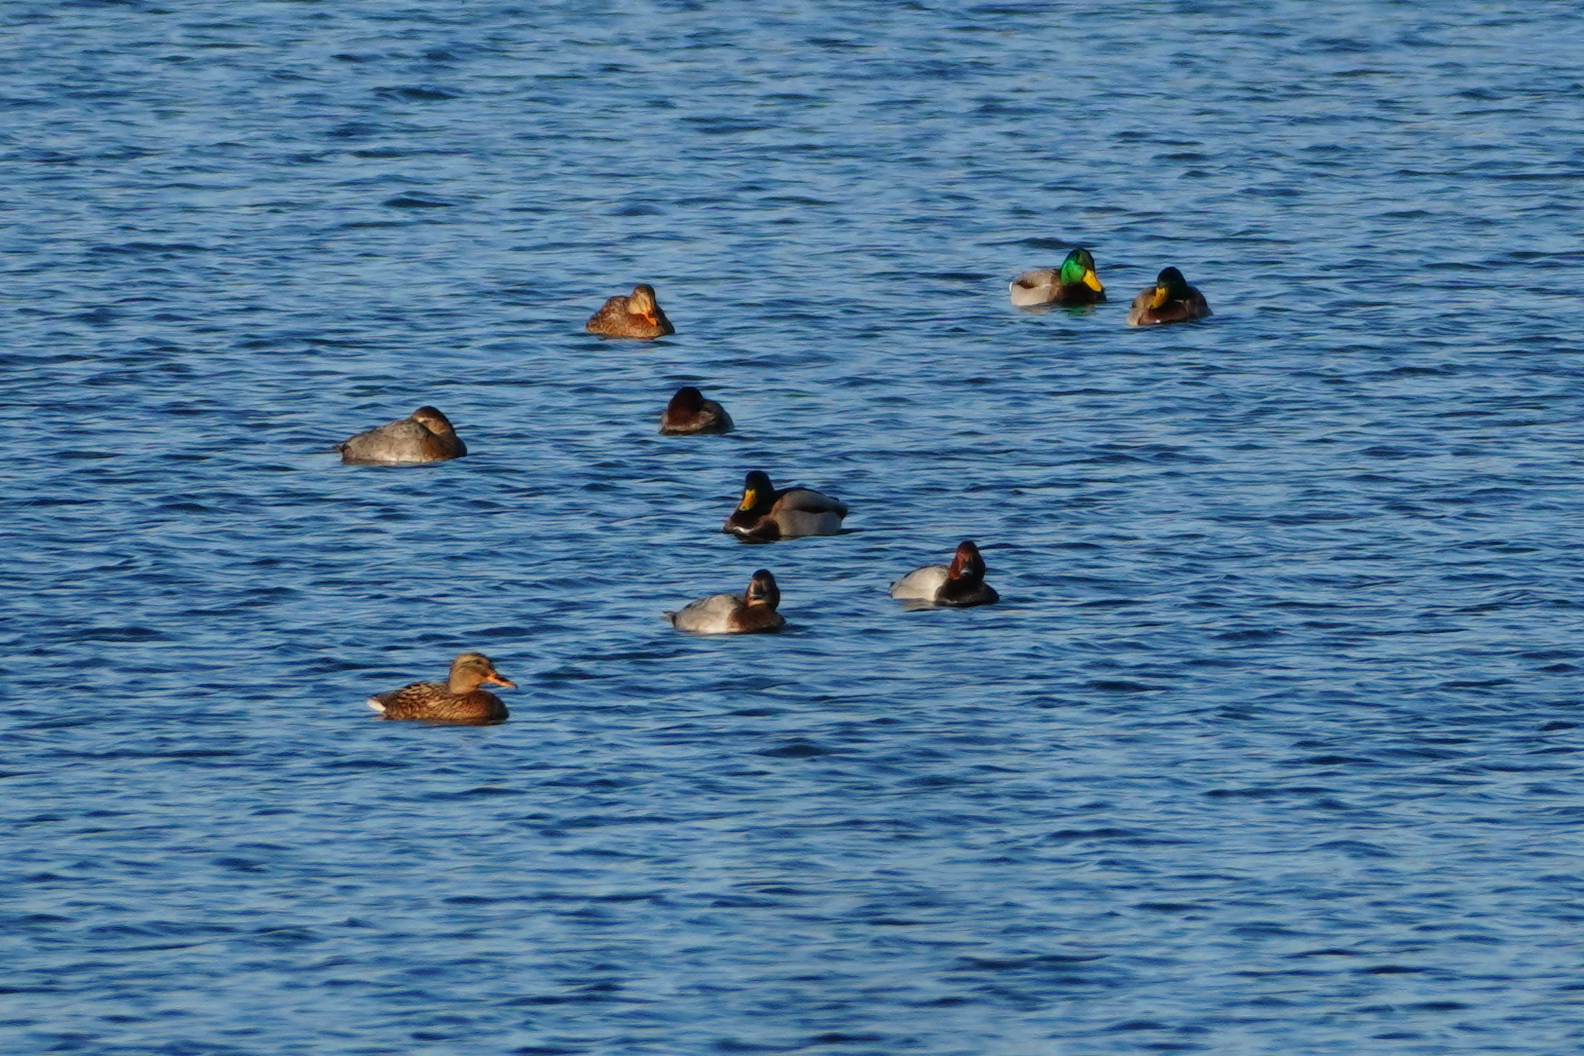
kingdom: Animalia
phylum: Chordata
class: Aves
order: Anseriformes
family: Anatidae
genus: Aythya
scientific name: Aythya ferina
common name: Common pochard
